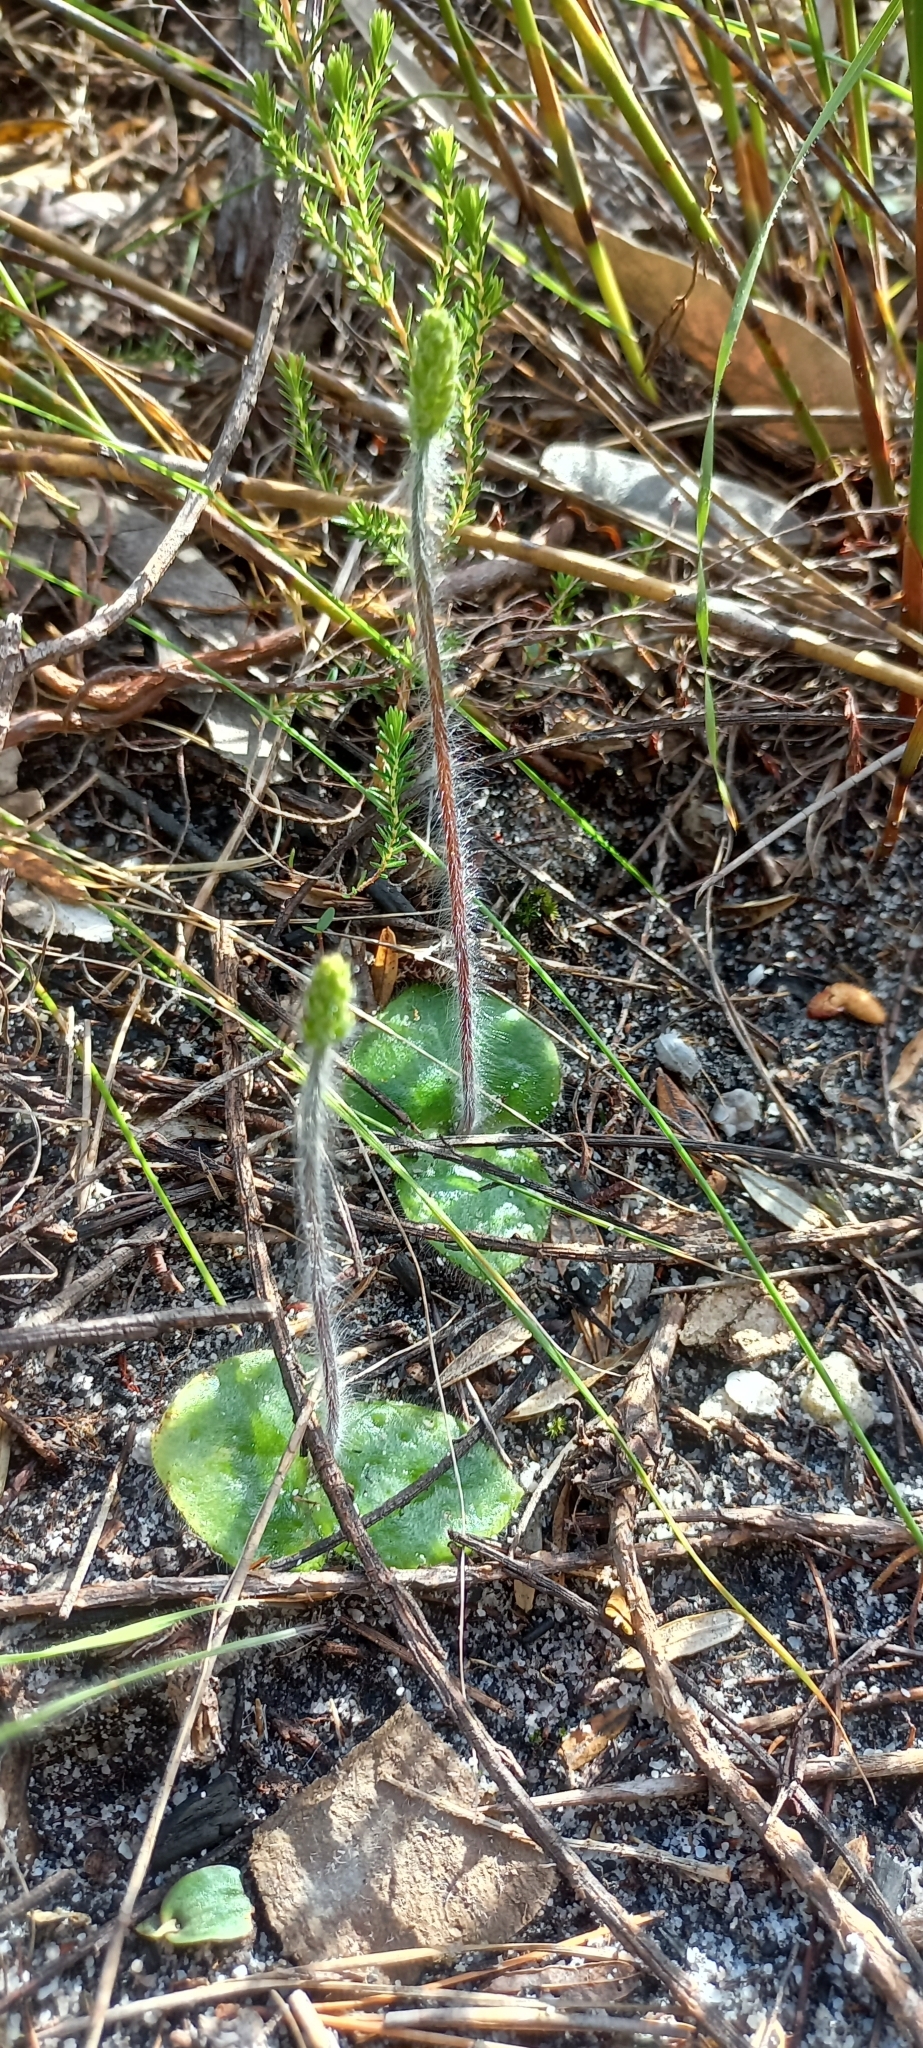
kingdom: Plantae
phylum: Tracheophyta
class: Liliopsida
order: Asparagales
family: Orchidaceae
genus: Holothrix
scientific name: Holothrix villosa
